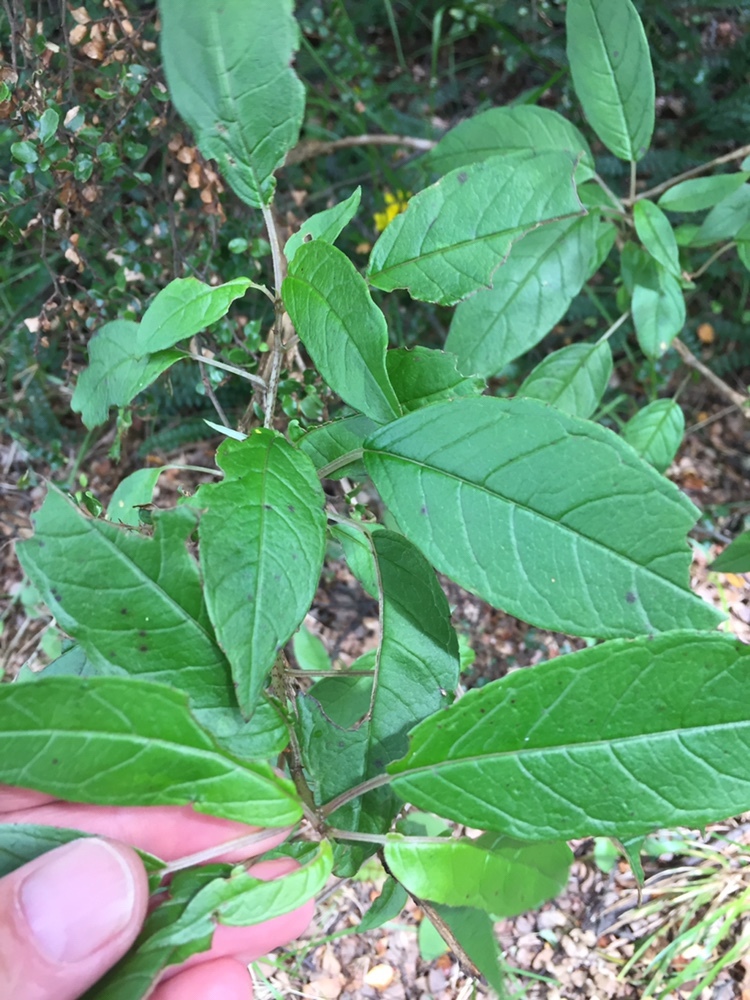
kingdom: Plantae
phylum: Tracheophyta
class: Magnoliopsida
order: Myrtales
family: Onagraceae
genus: Fuchsia
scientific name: Fuchsia excorticata
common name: Tree fuchsia
